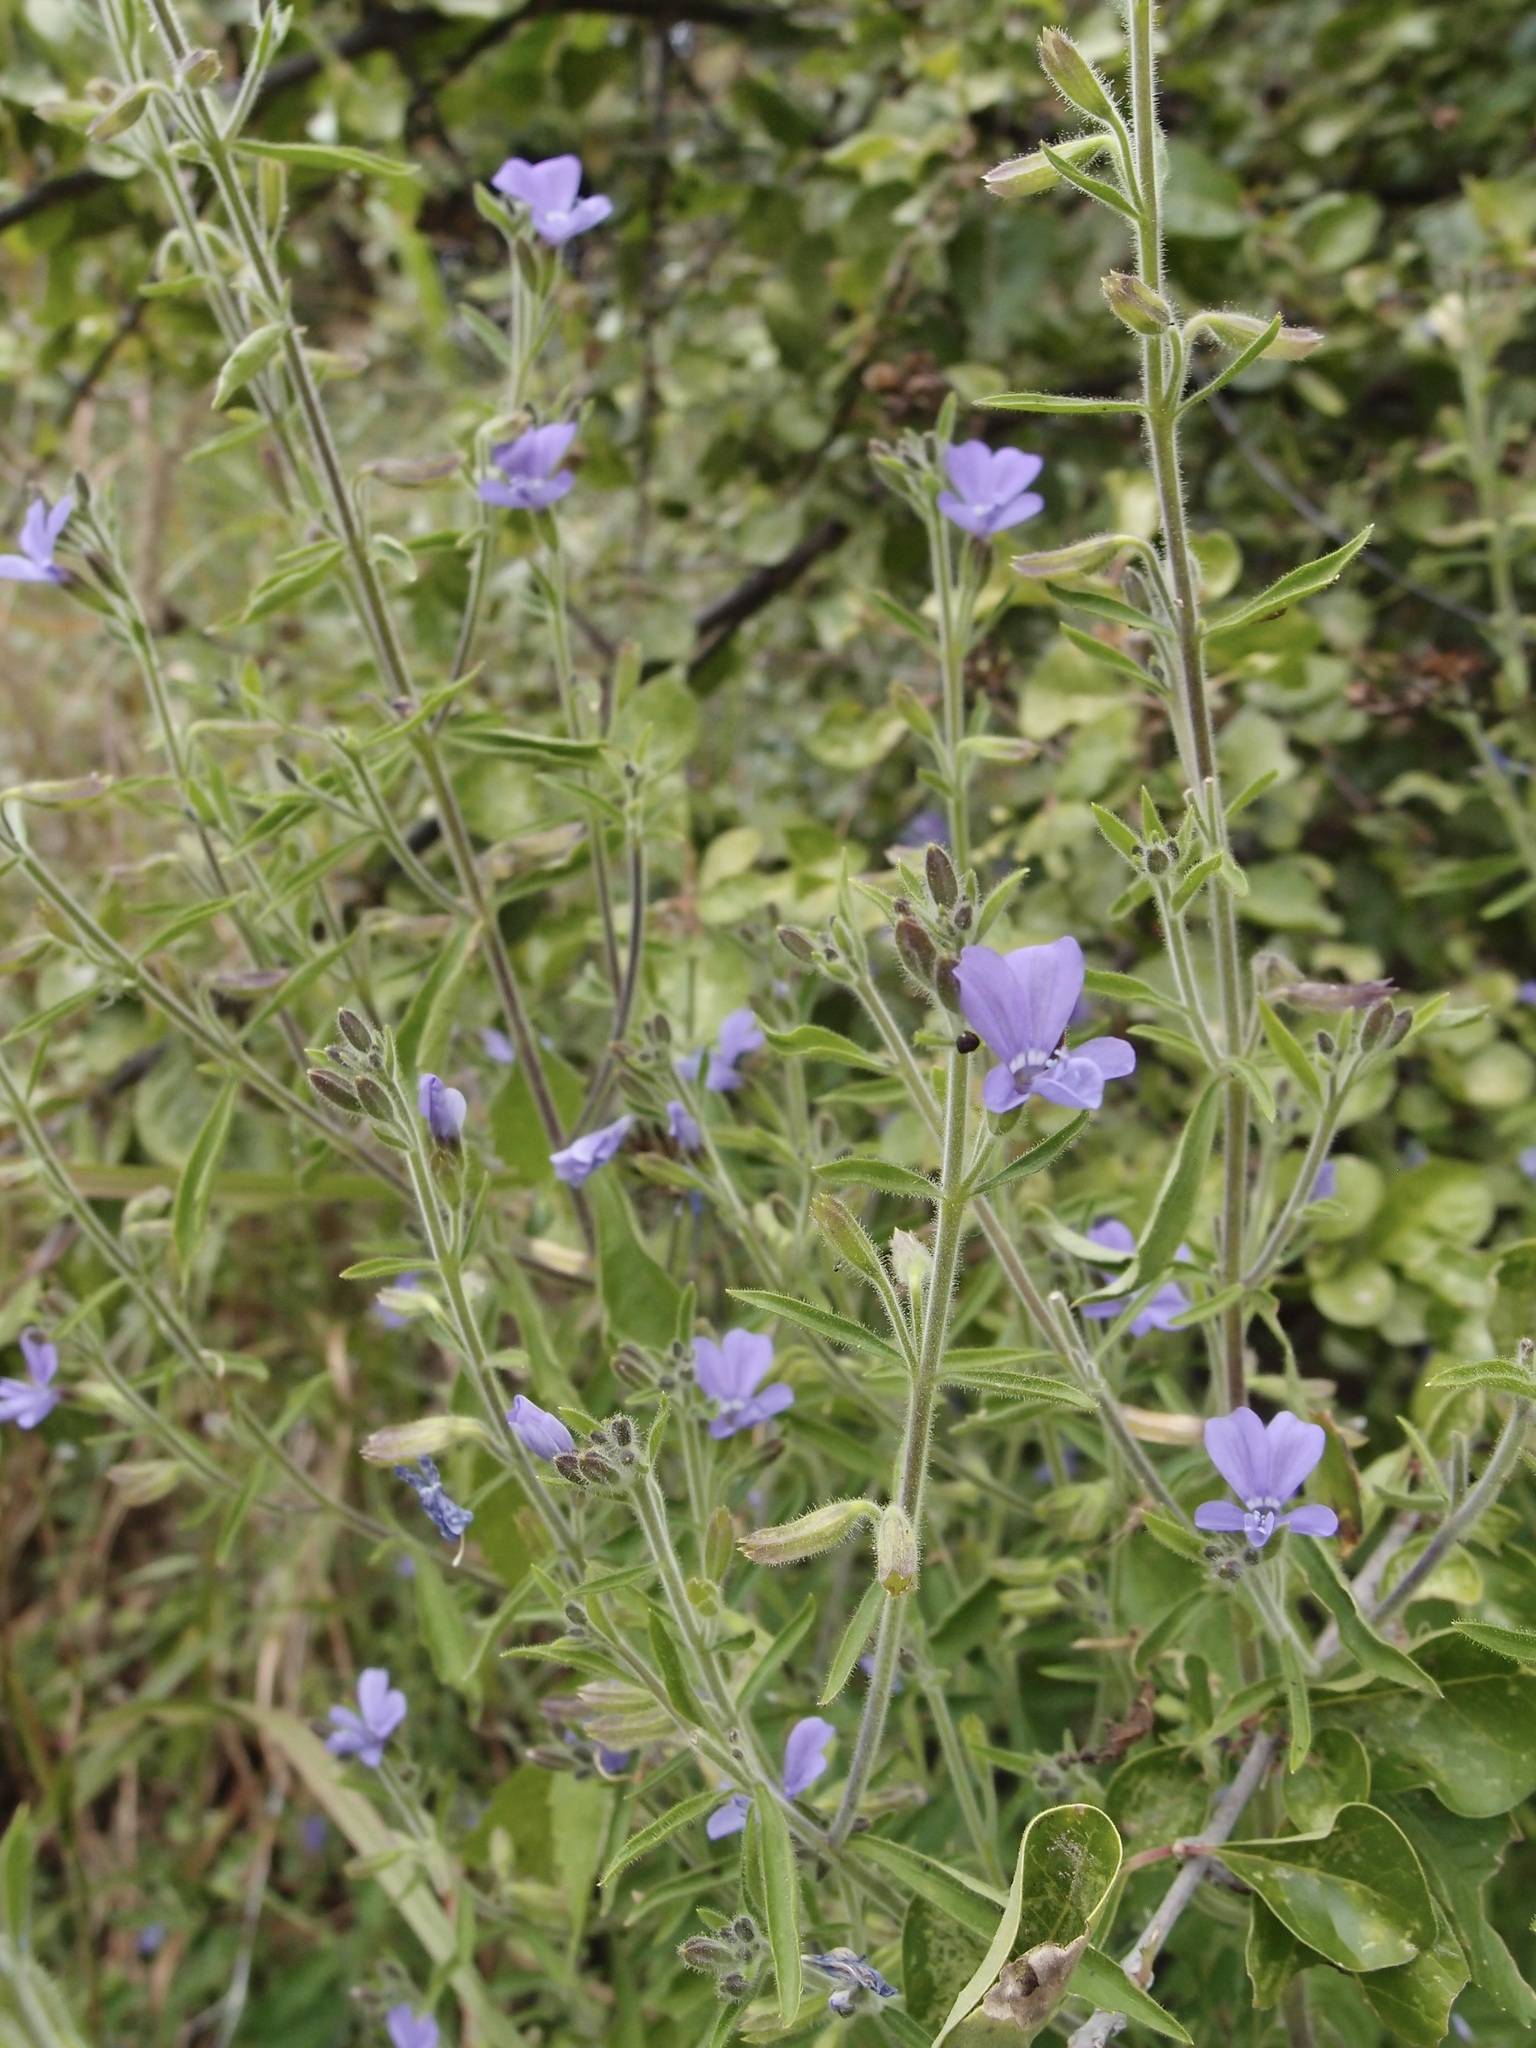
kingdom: Plantae
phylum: Tracheophyta
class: Magnoliopsida
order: Ericales
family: Polemoniaceae
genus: Bonplandia
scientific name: Bonplandia geminiflora
